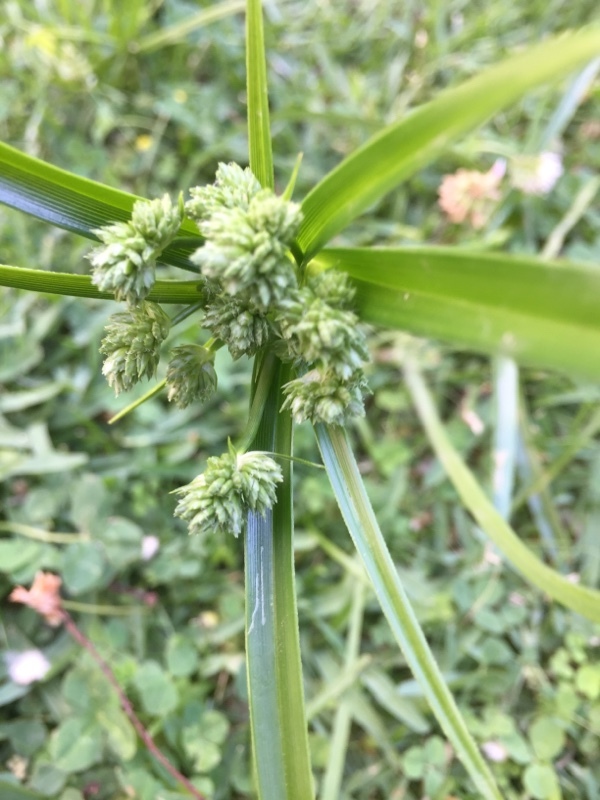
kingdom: Plantae
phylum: Tracheophyta
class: Liliopsida
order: Poales
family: Cyperaceae
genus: Cyperus
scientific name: Cyperus eragrostis
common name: Tall flatsedge
